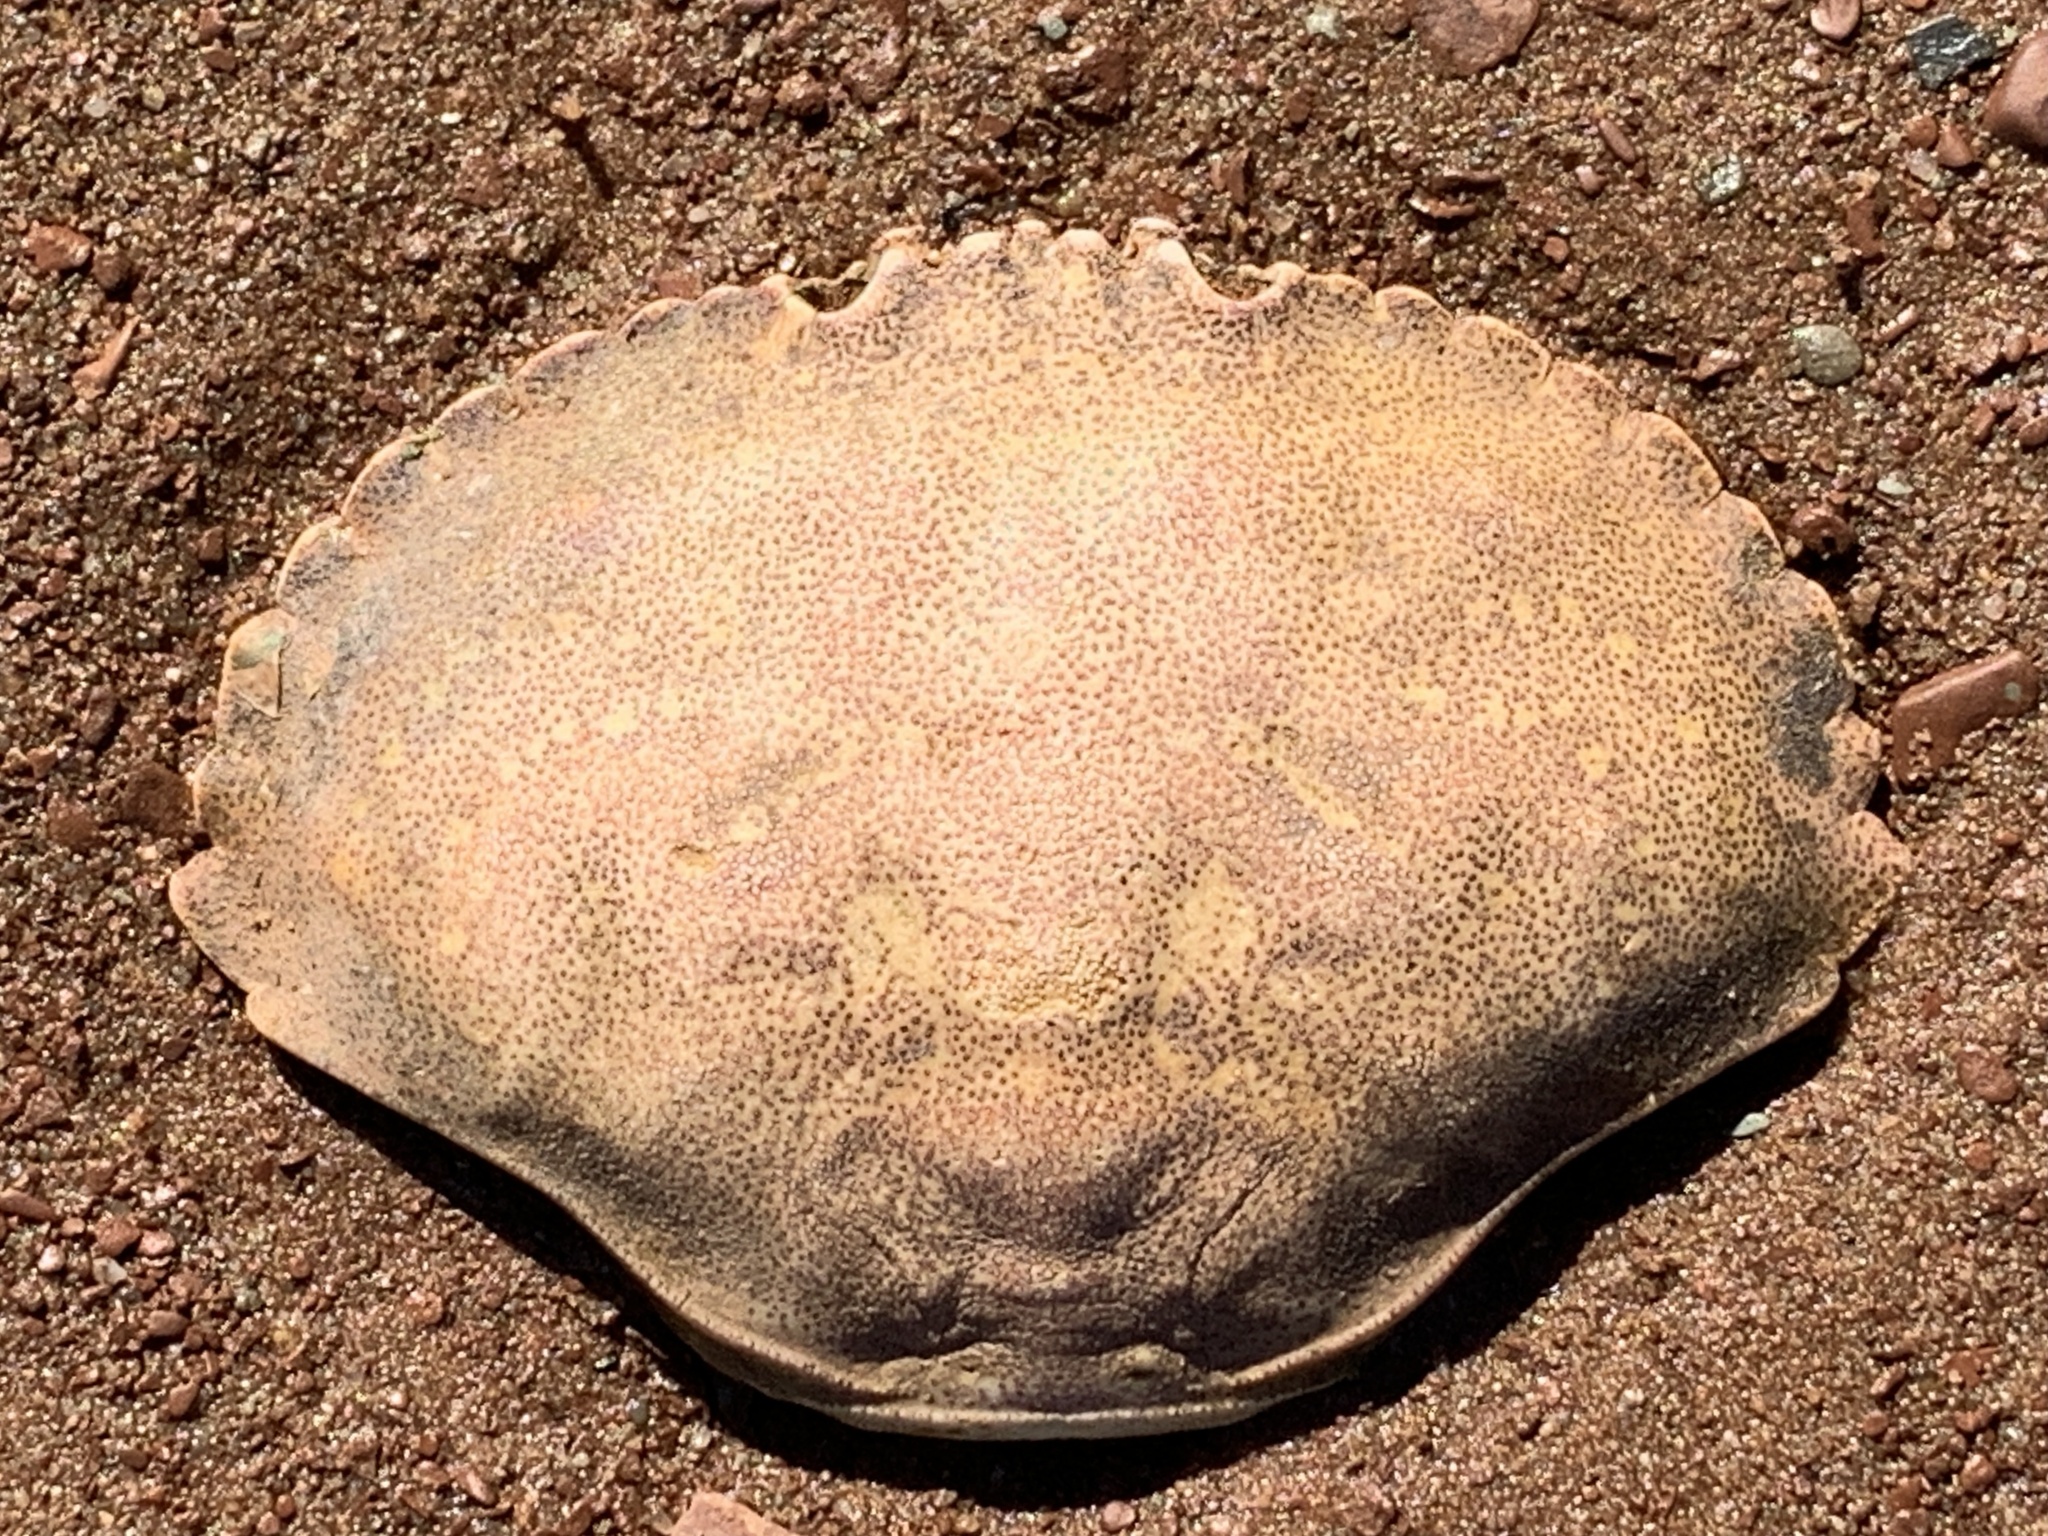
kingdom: Animalia
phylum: Arthropoda
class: Malacostraca
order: Decapoda
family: Cancridae
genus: Cancer
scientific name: Cancer irroratus
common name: Atlantic rock crab
